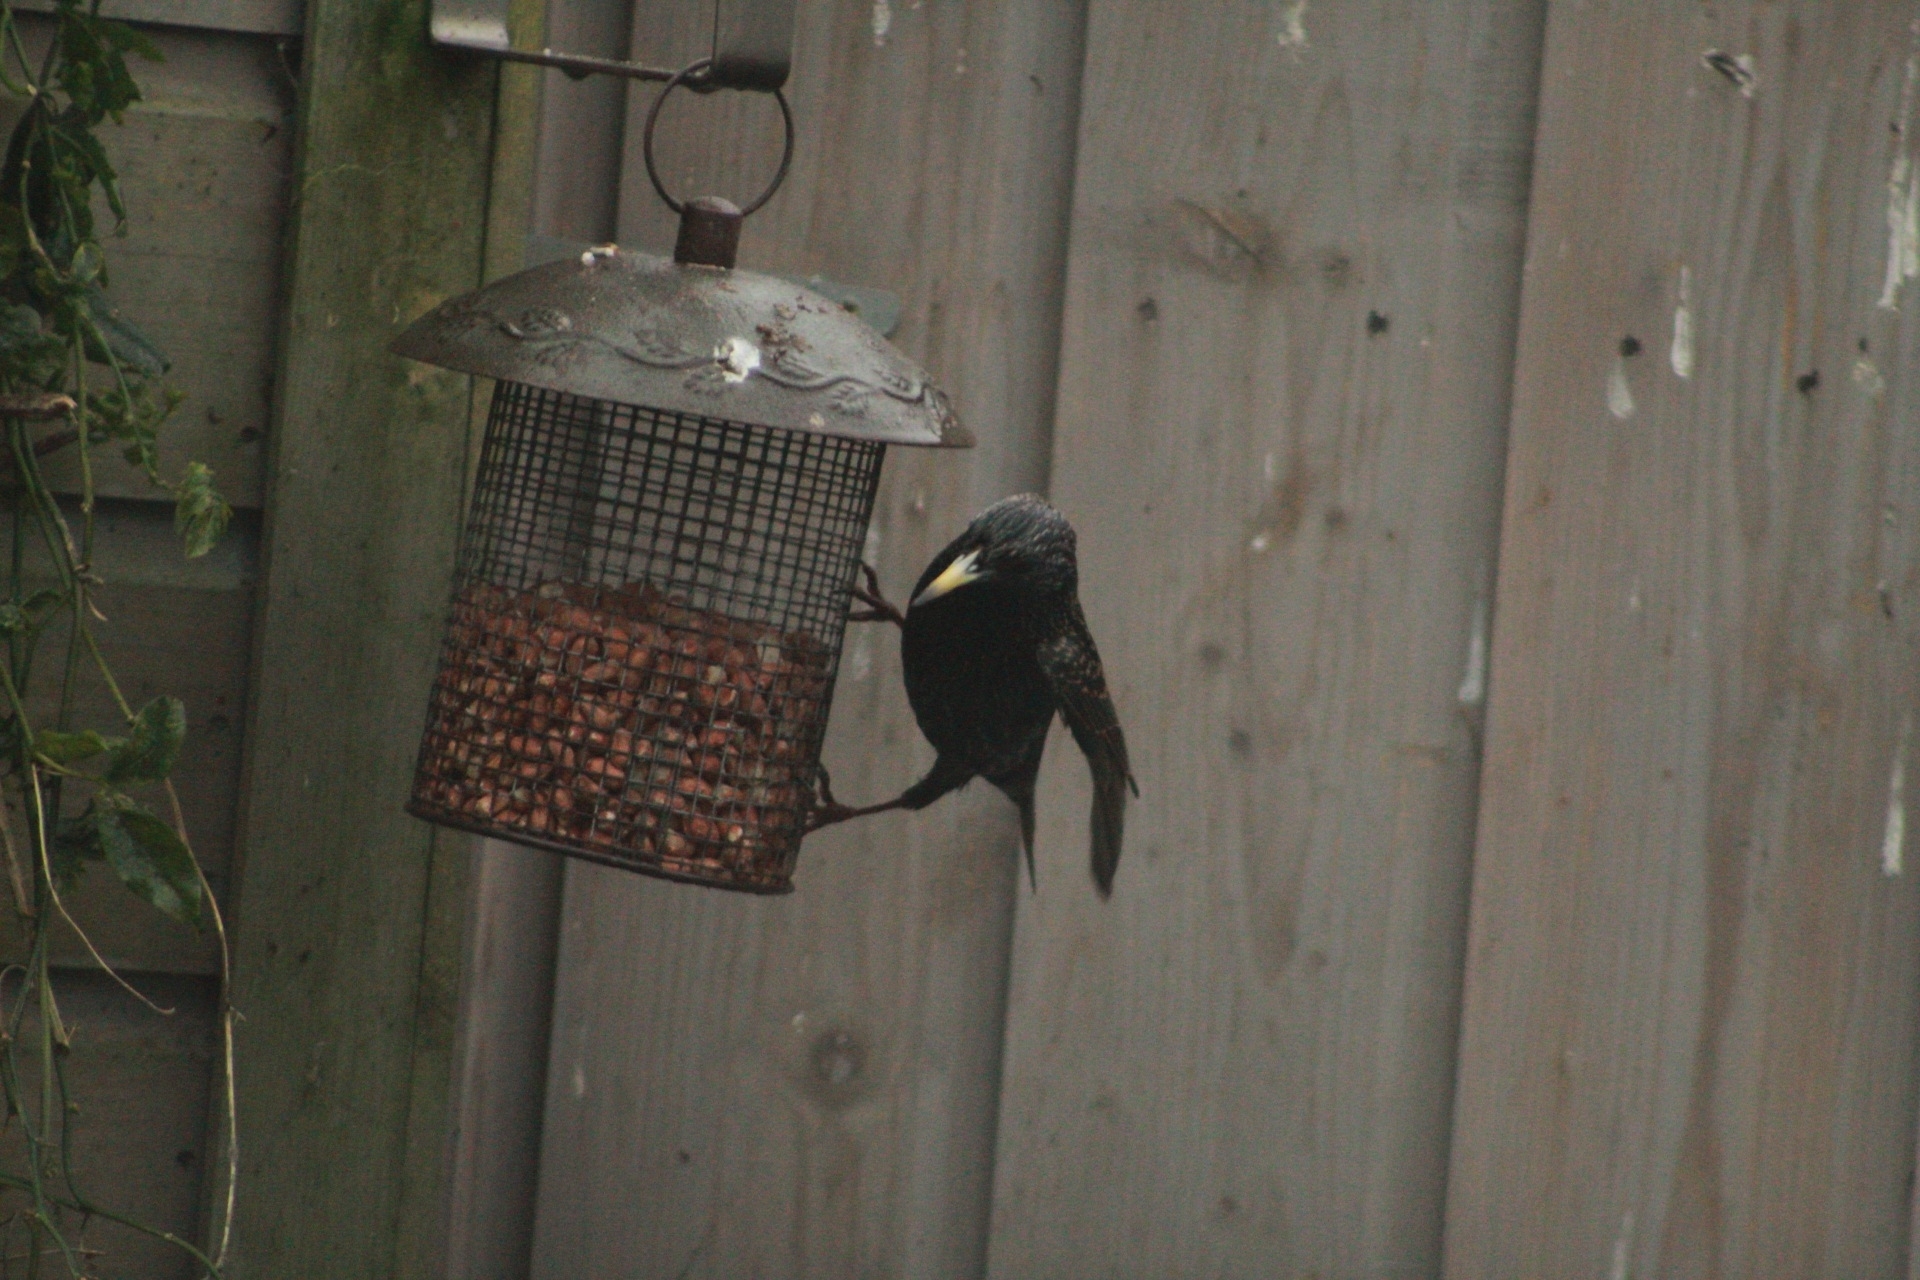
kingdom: Animalia
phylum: Chordata
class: Aves
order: Passeriformes
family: Sturnidae
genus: Sturnus
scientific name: Sturnus vulgaris
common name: Common starling
